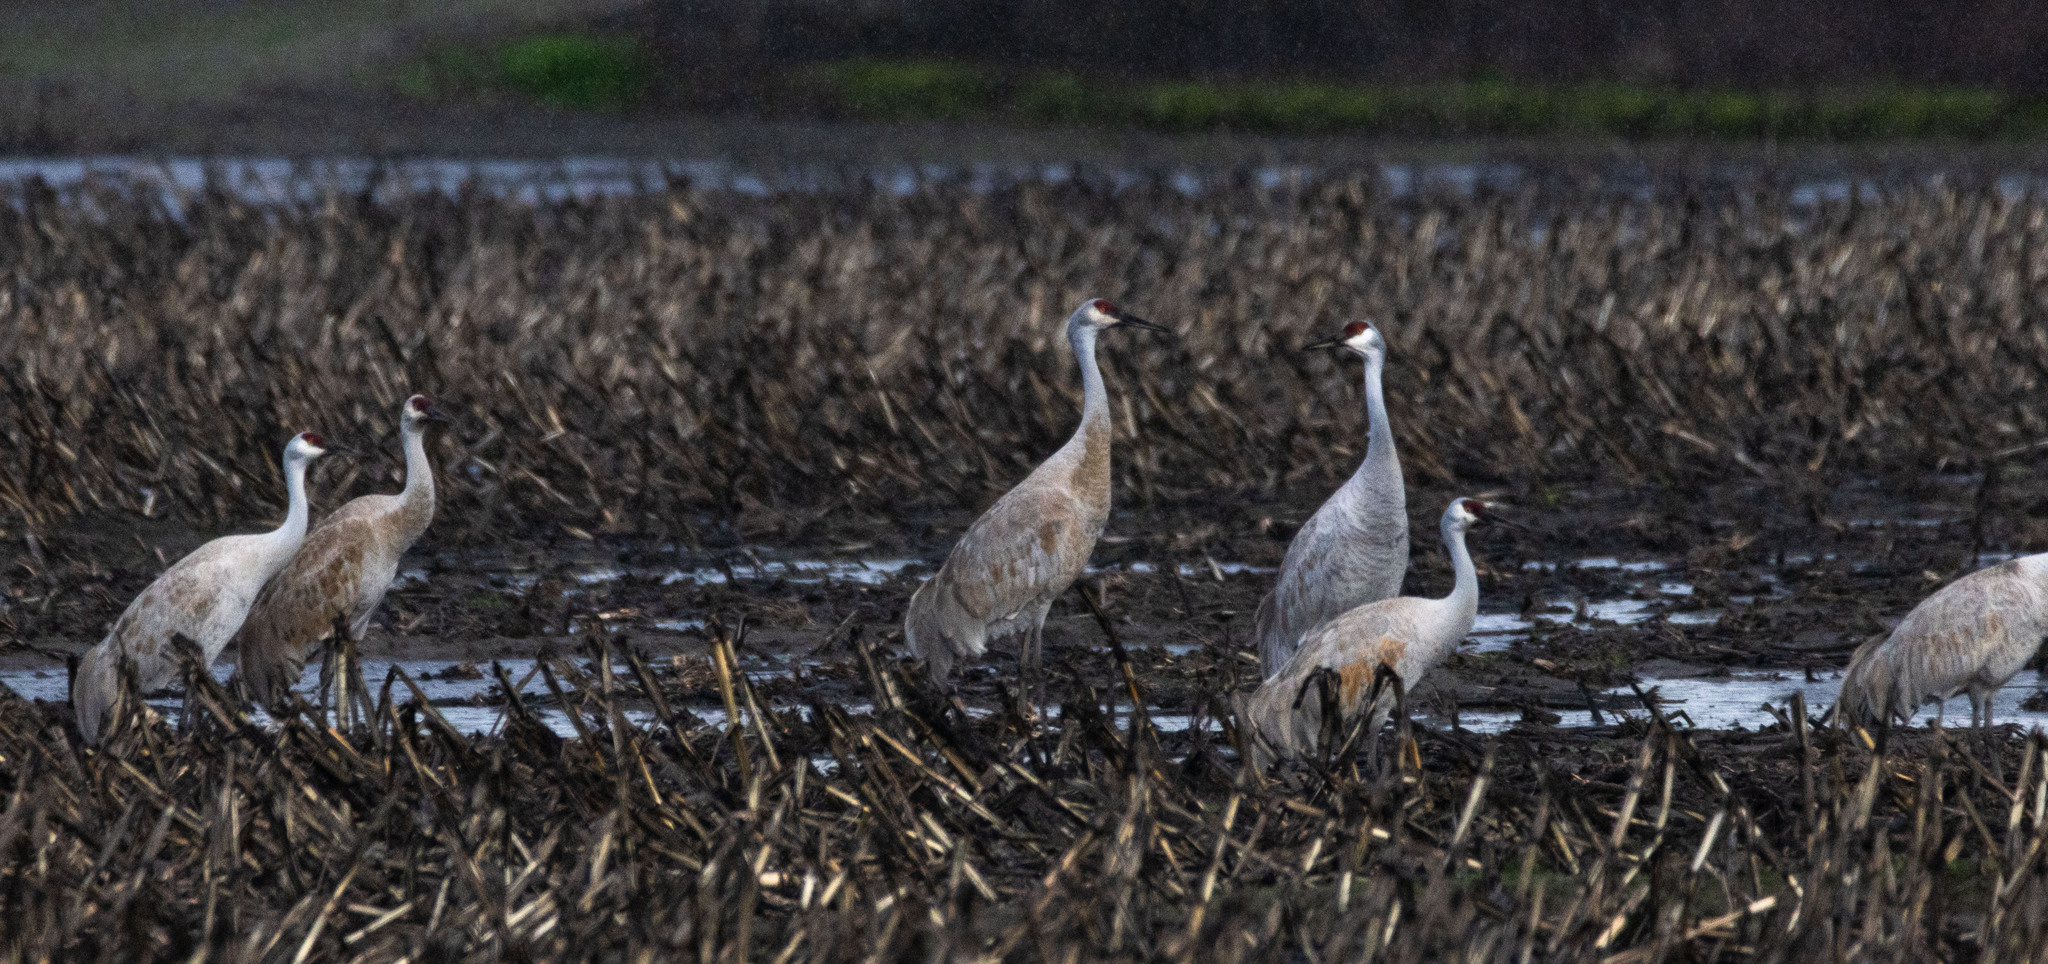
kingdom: Animalia
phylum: Chordata
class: Aves
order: Gruiformes
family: Gruidae
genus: Grus
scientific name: Grus canadensis
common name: Sandhill crane
